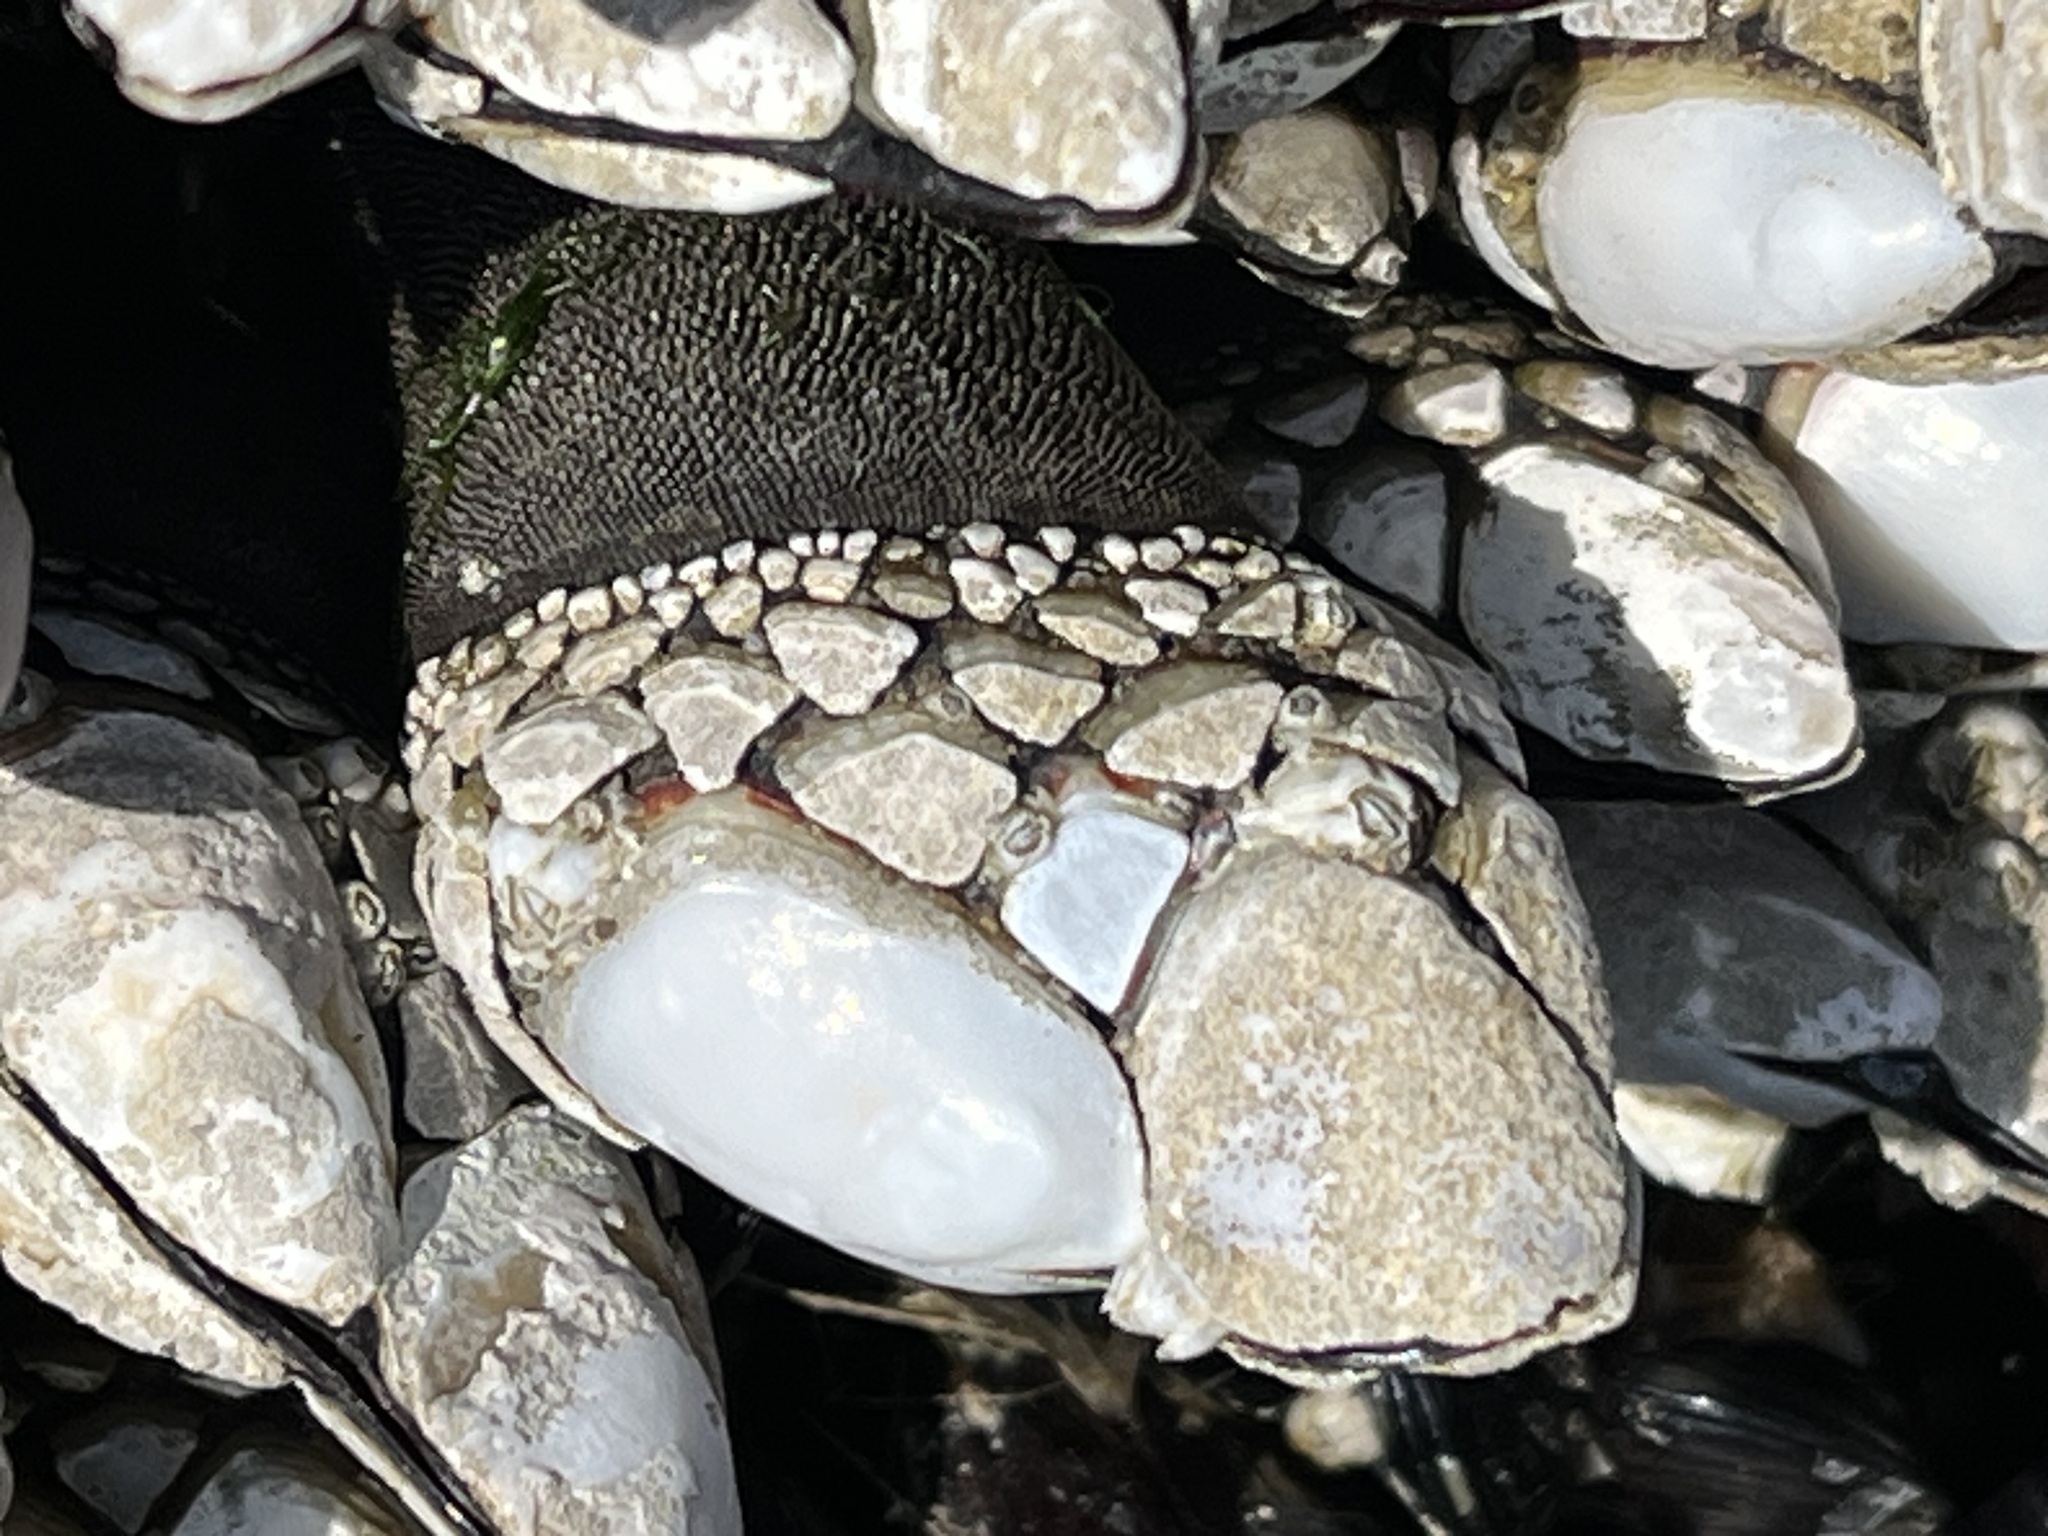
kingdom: Animalia
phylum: Arthropoda
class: Maxillopoda
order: Pedunculata
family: Pollicipedidae
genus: Pollicipes
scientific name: Pollicipes polymerus
